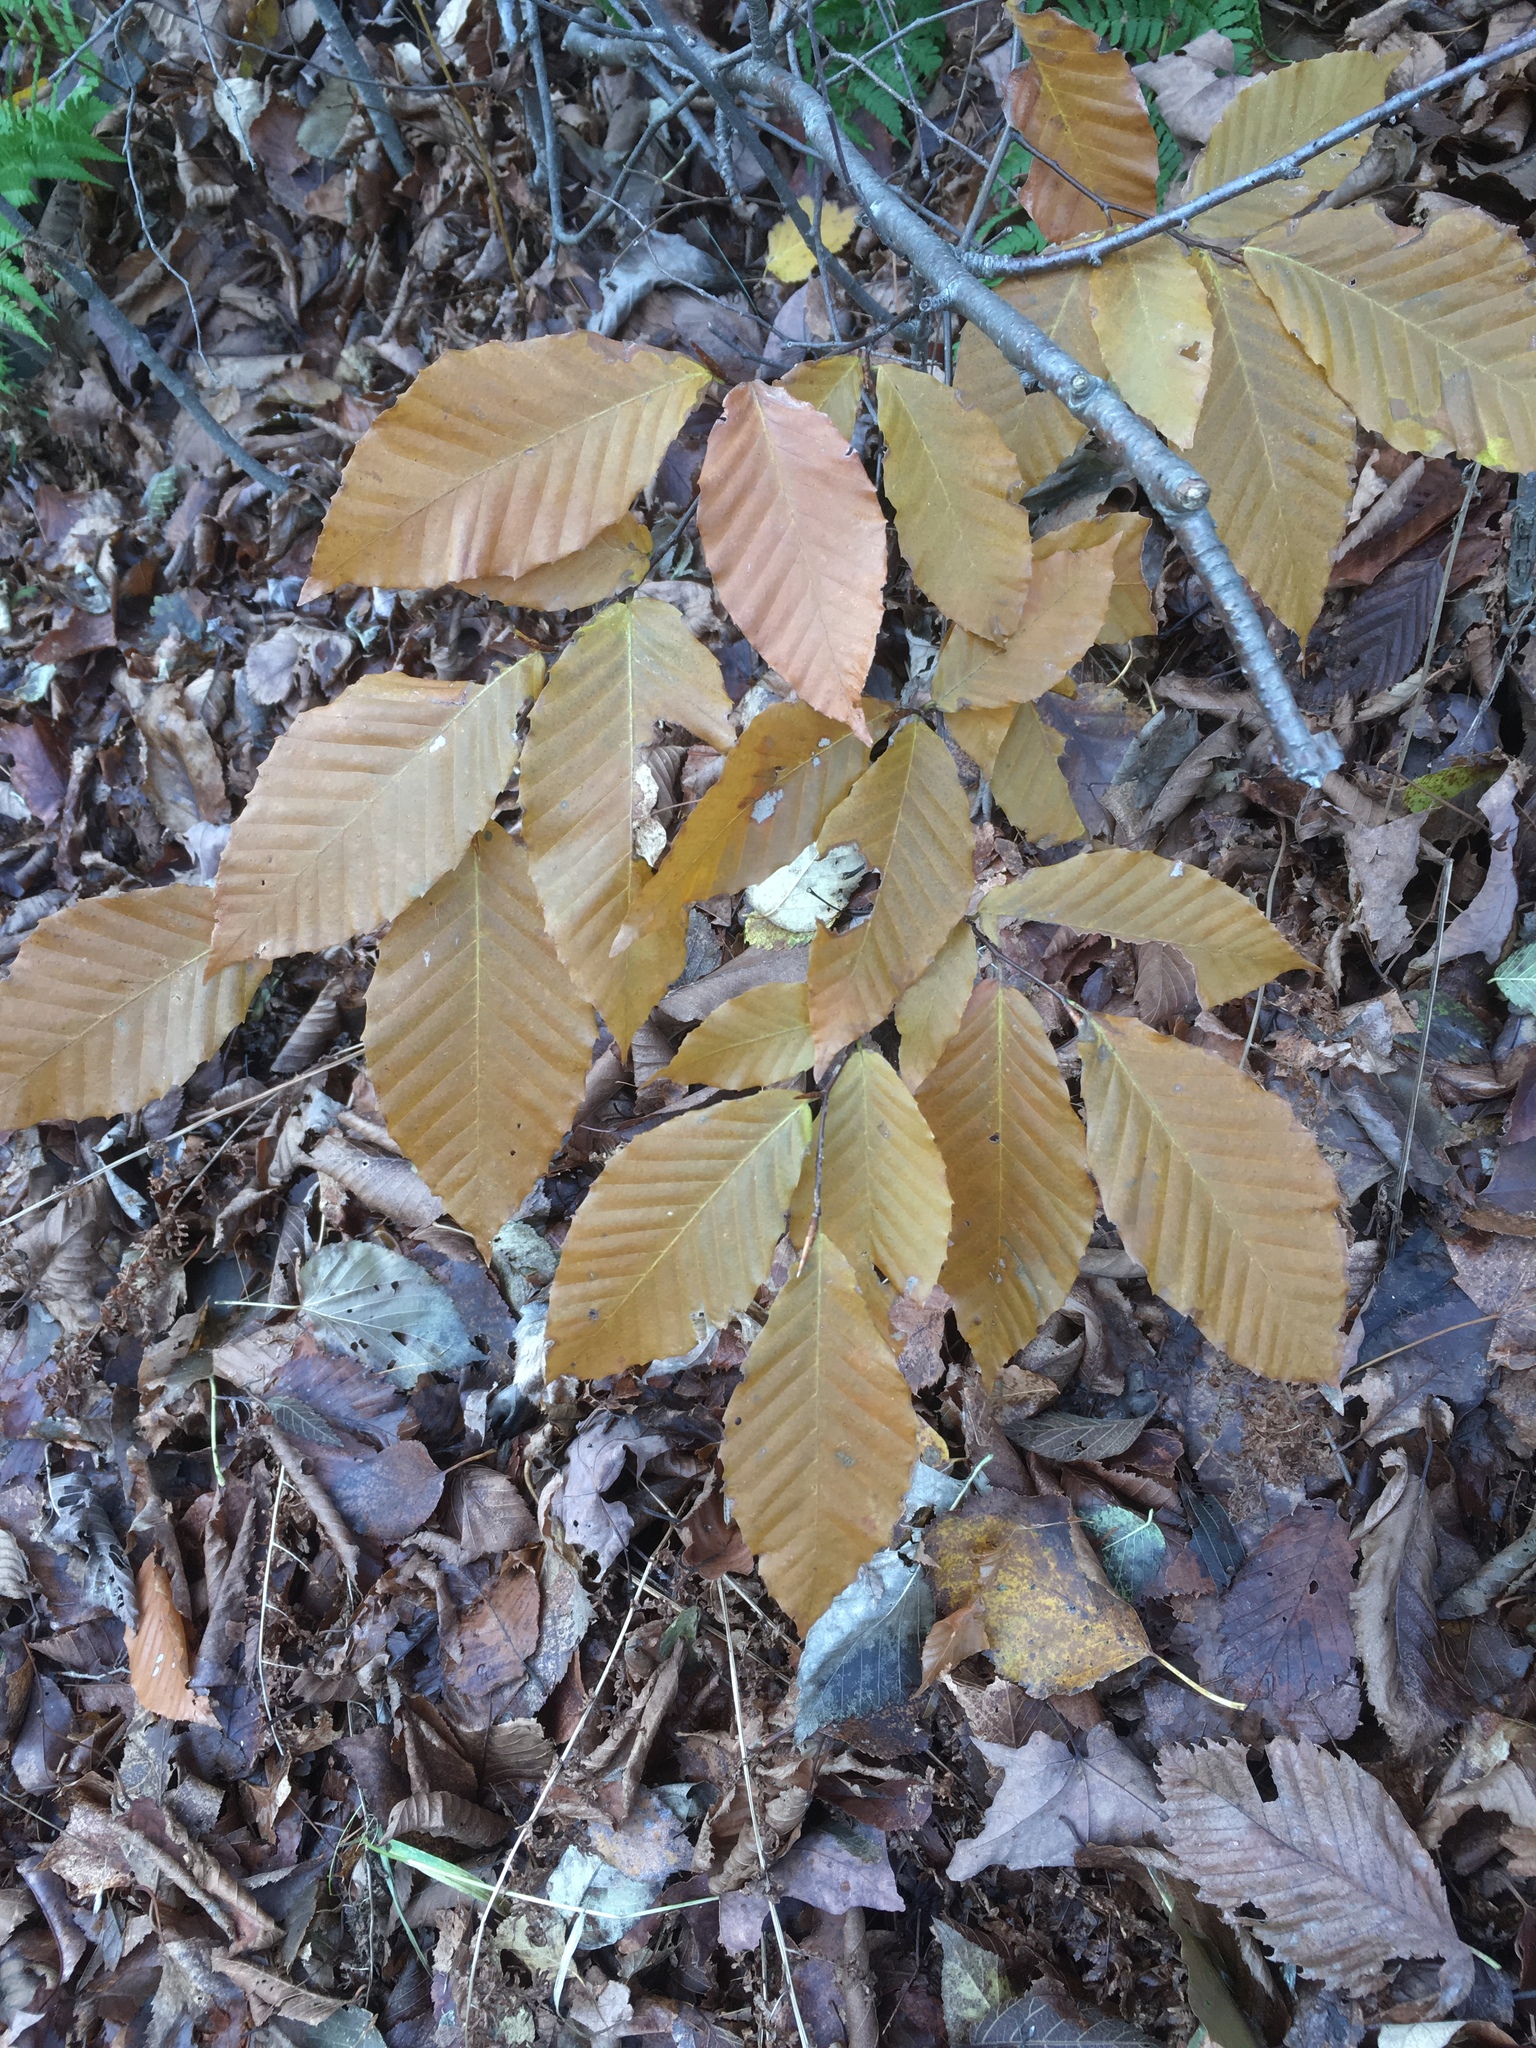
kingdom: Plantae
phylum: Tracheophyta
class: Magnoliopsida
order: Fagales
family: Fagaceae
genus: Fagus
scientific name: Fagus grandifolia
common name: American beech
